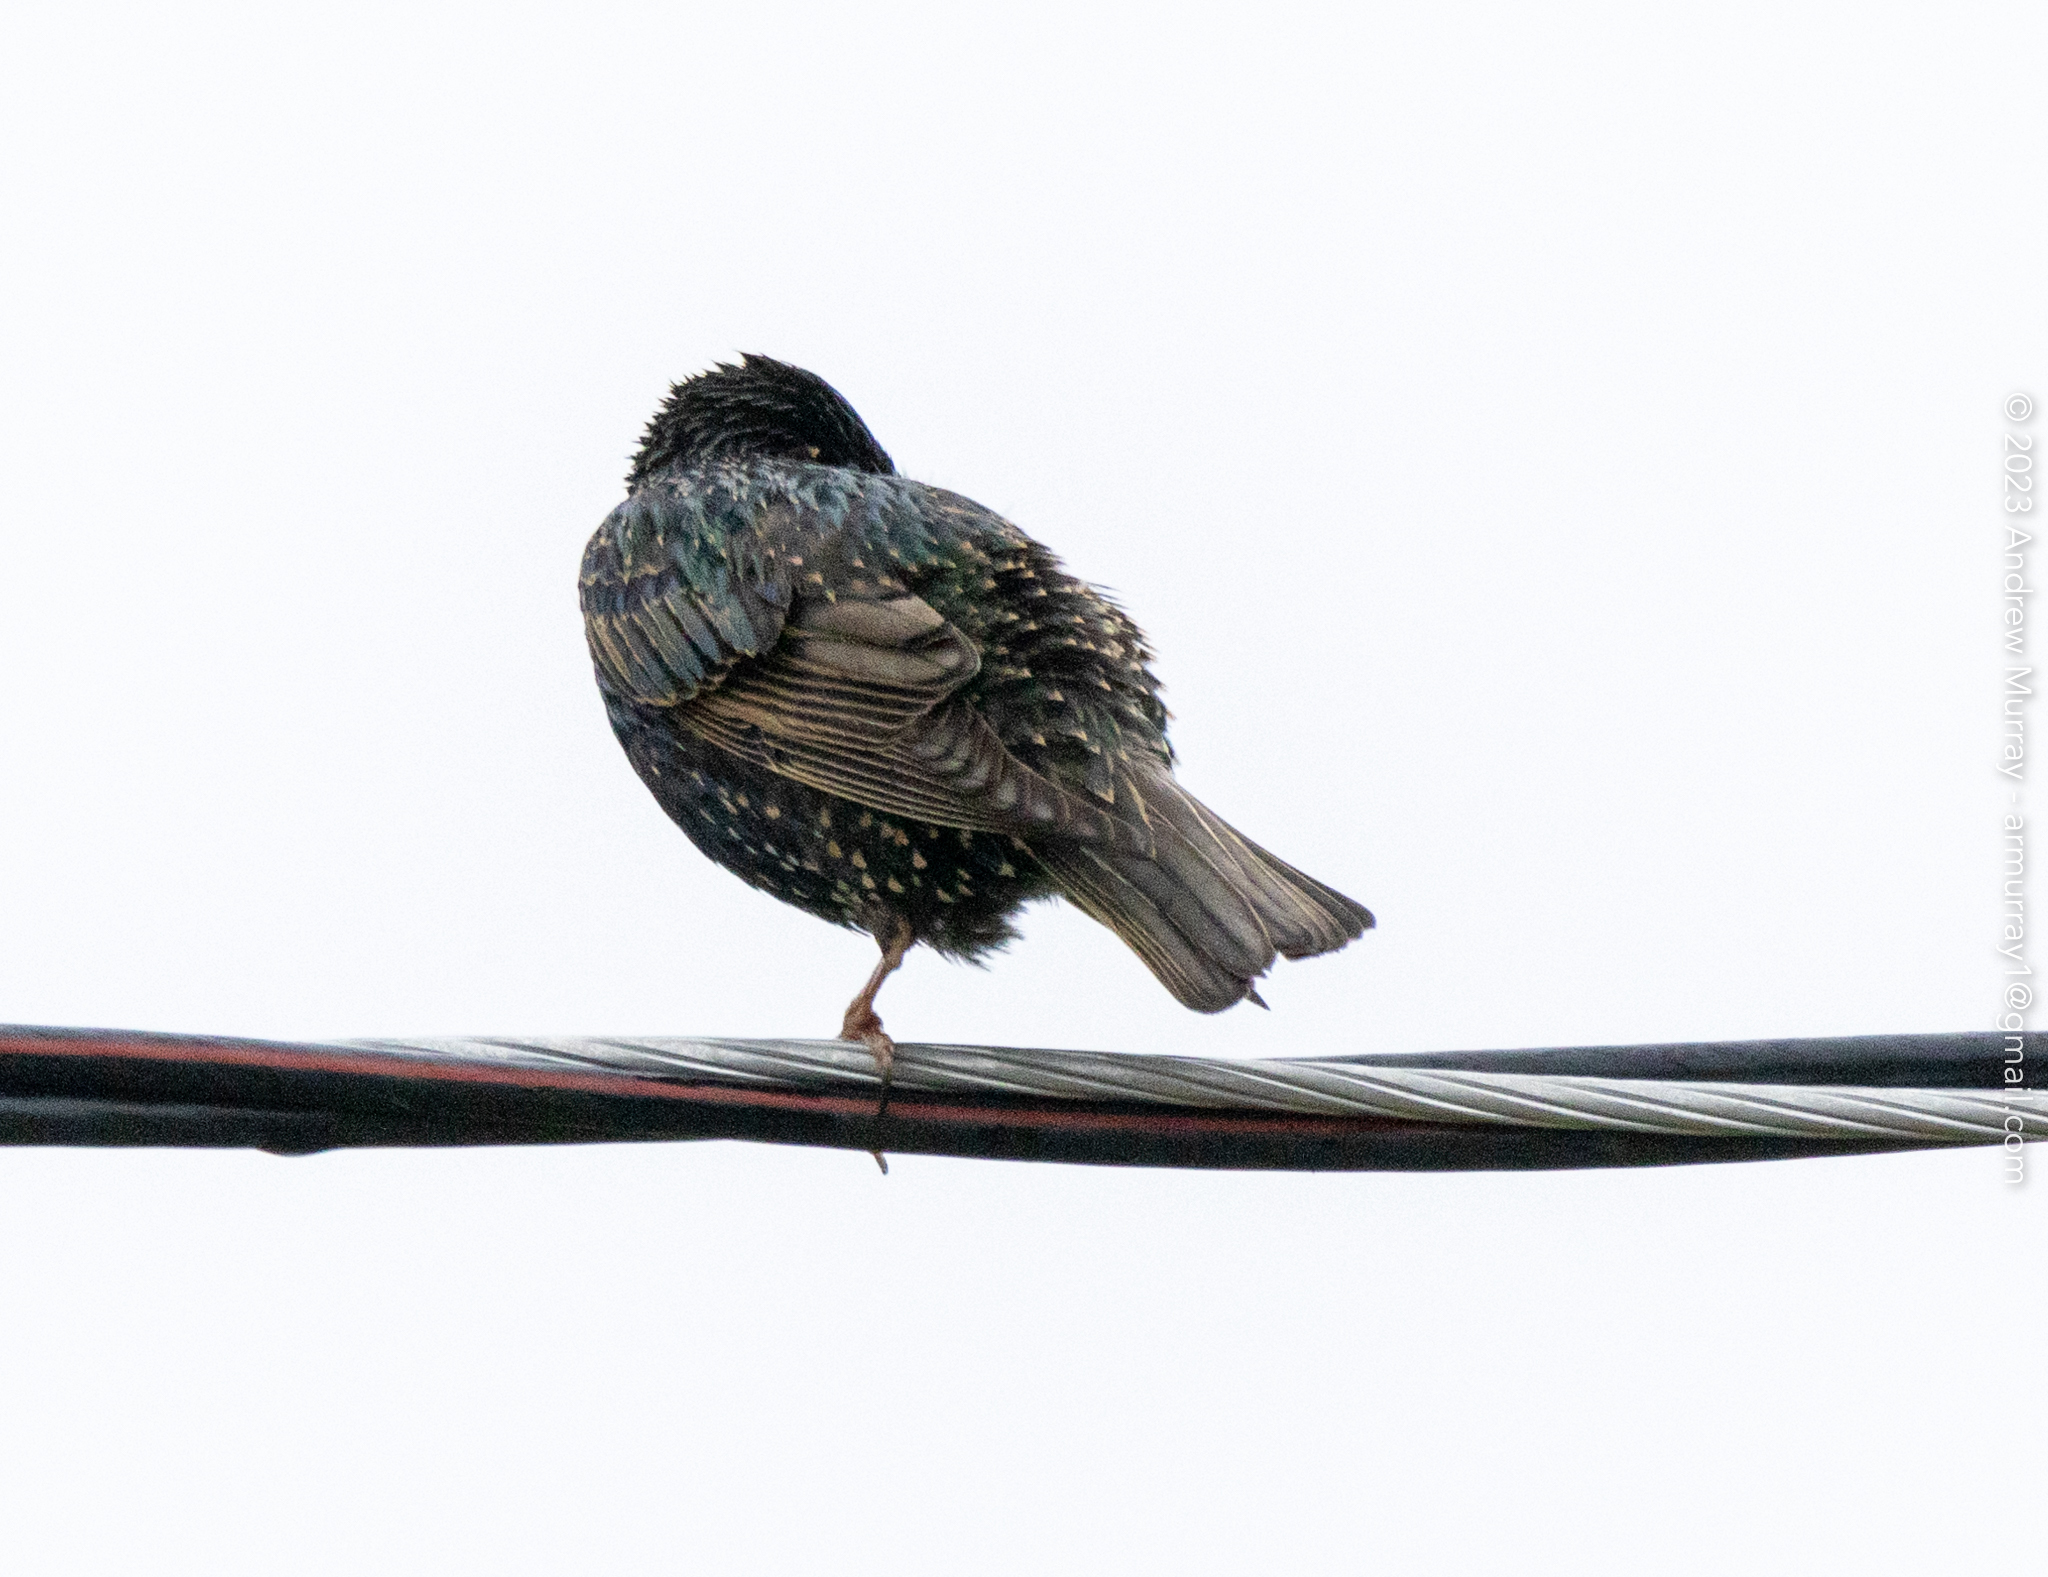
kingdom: Animalia
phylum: Chordata
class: Aves
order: Passeriformes
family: Sturnidae
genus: Sturnus
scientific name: Sturnus vulgaris
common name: Common starling
